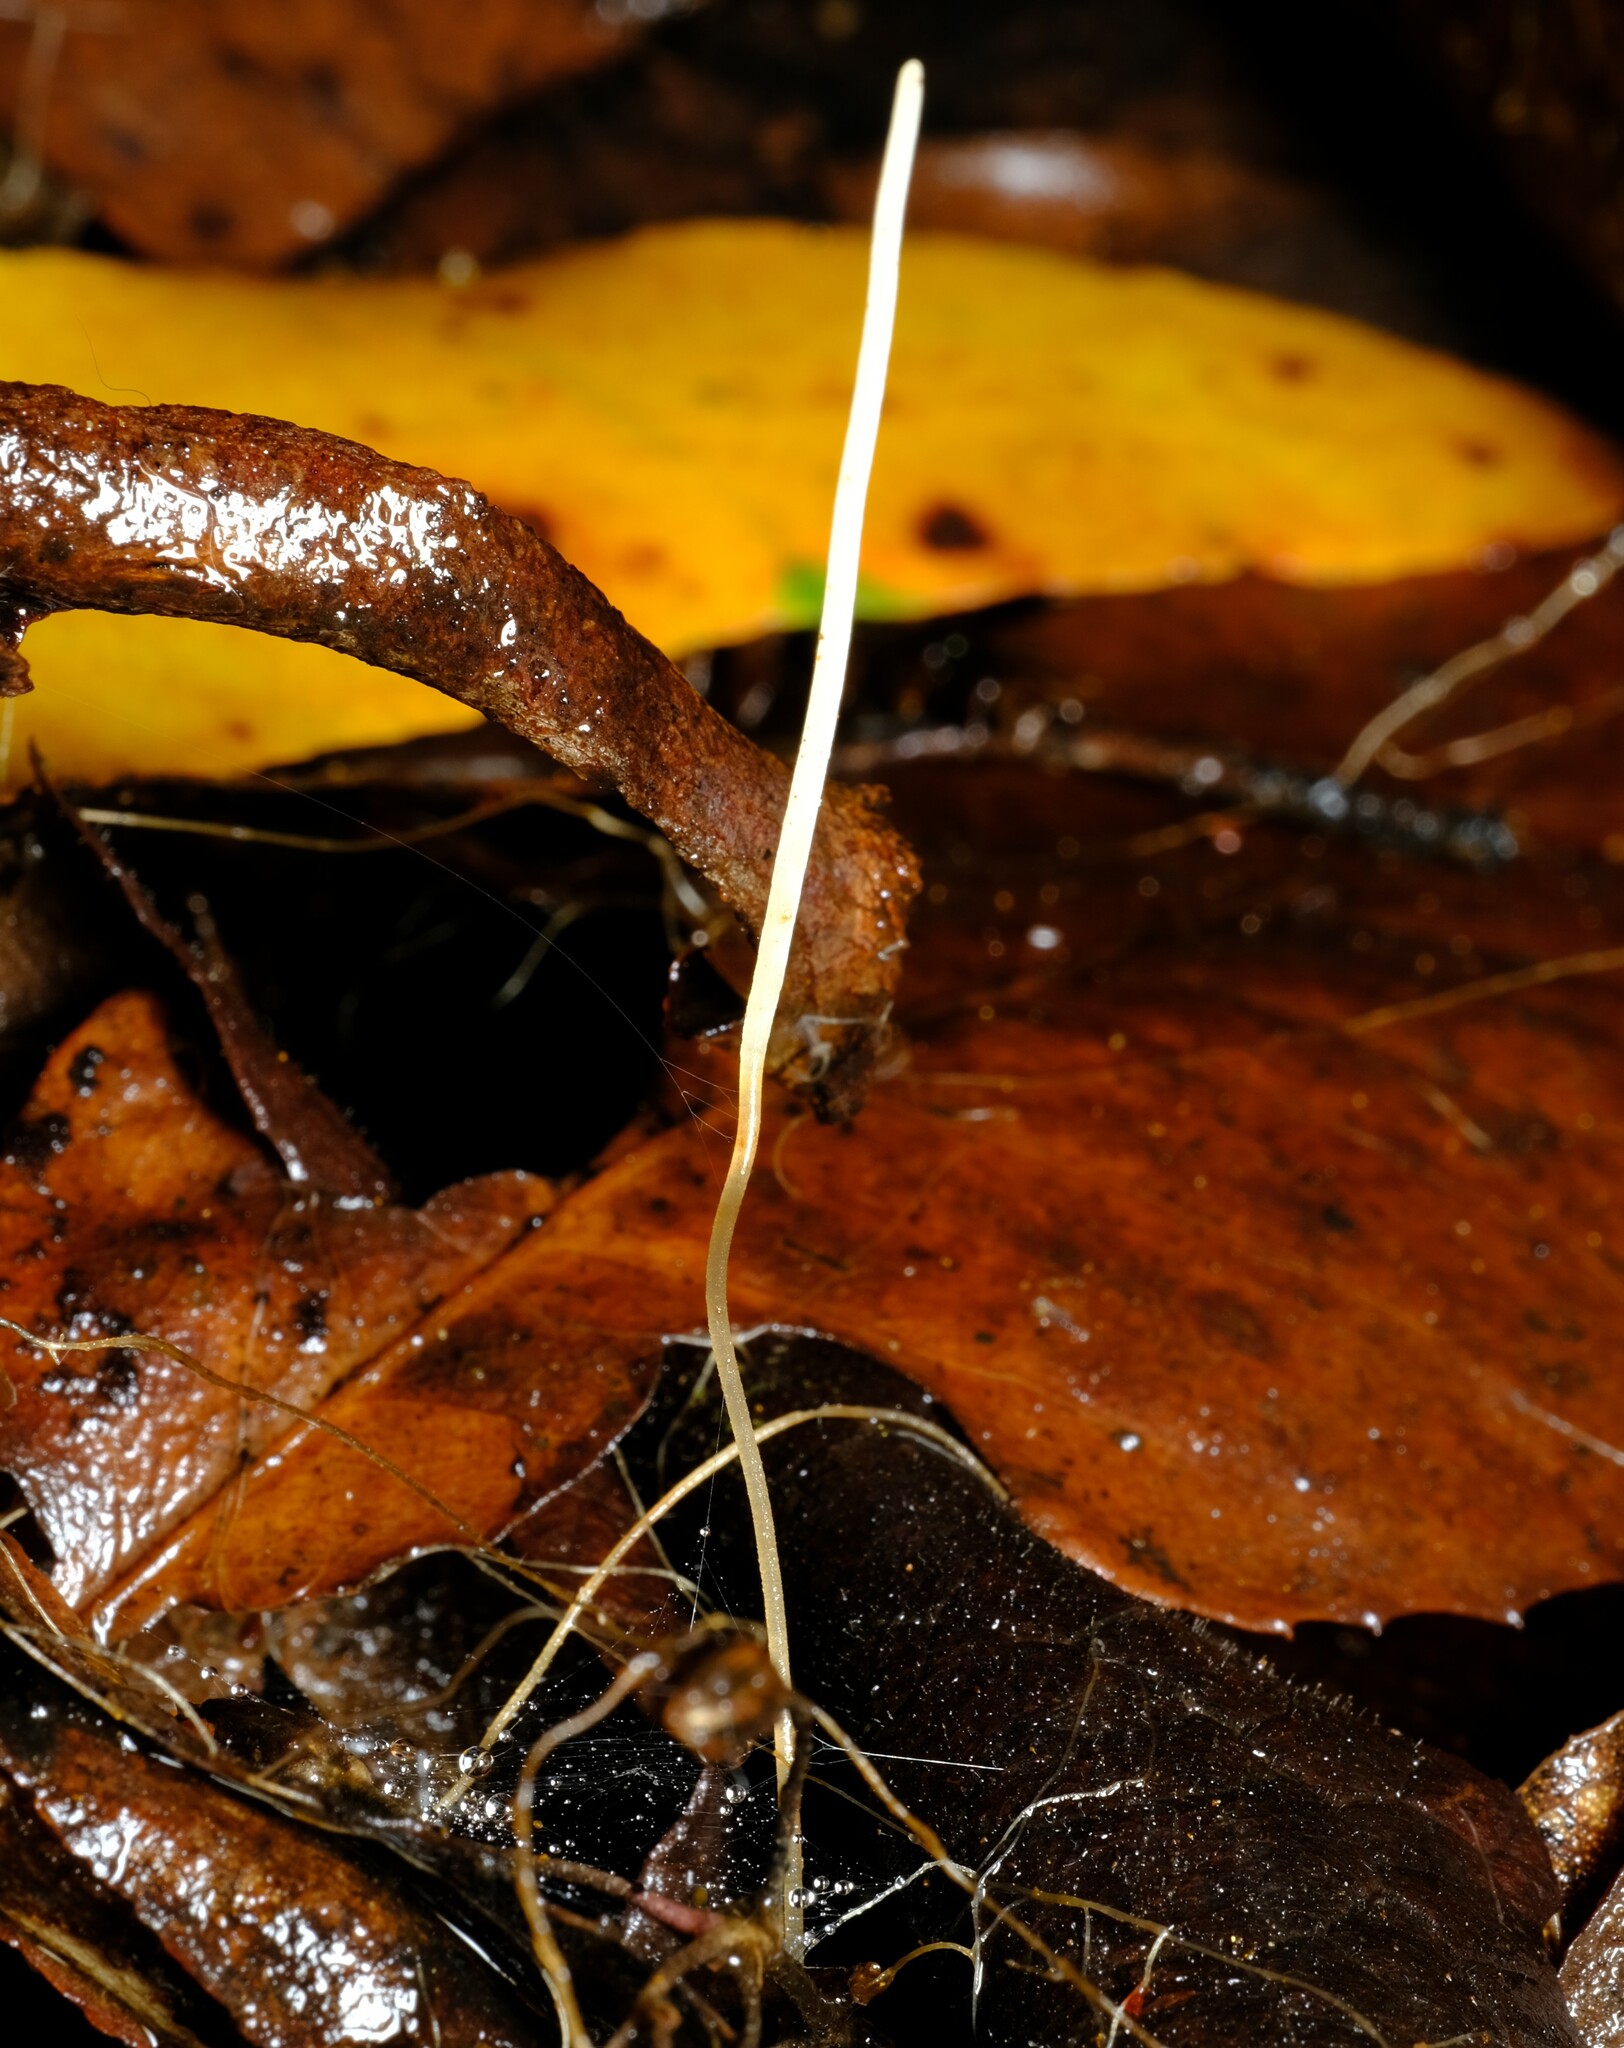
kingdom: Fungi
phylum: Basidiomycota
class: Agaricomycetes
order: Agaricales
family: Typhulaceae
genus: Typhula
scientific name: Typhula juncea
